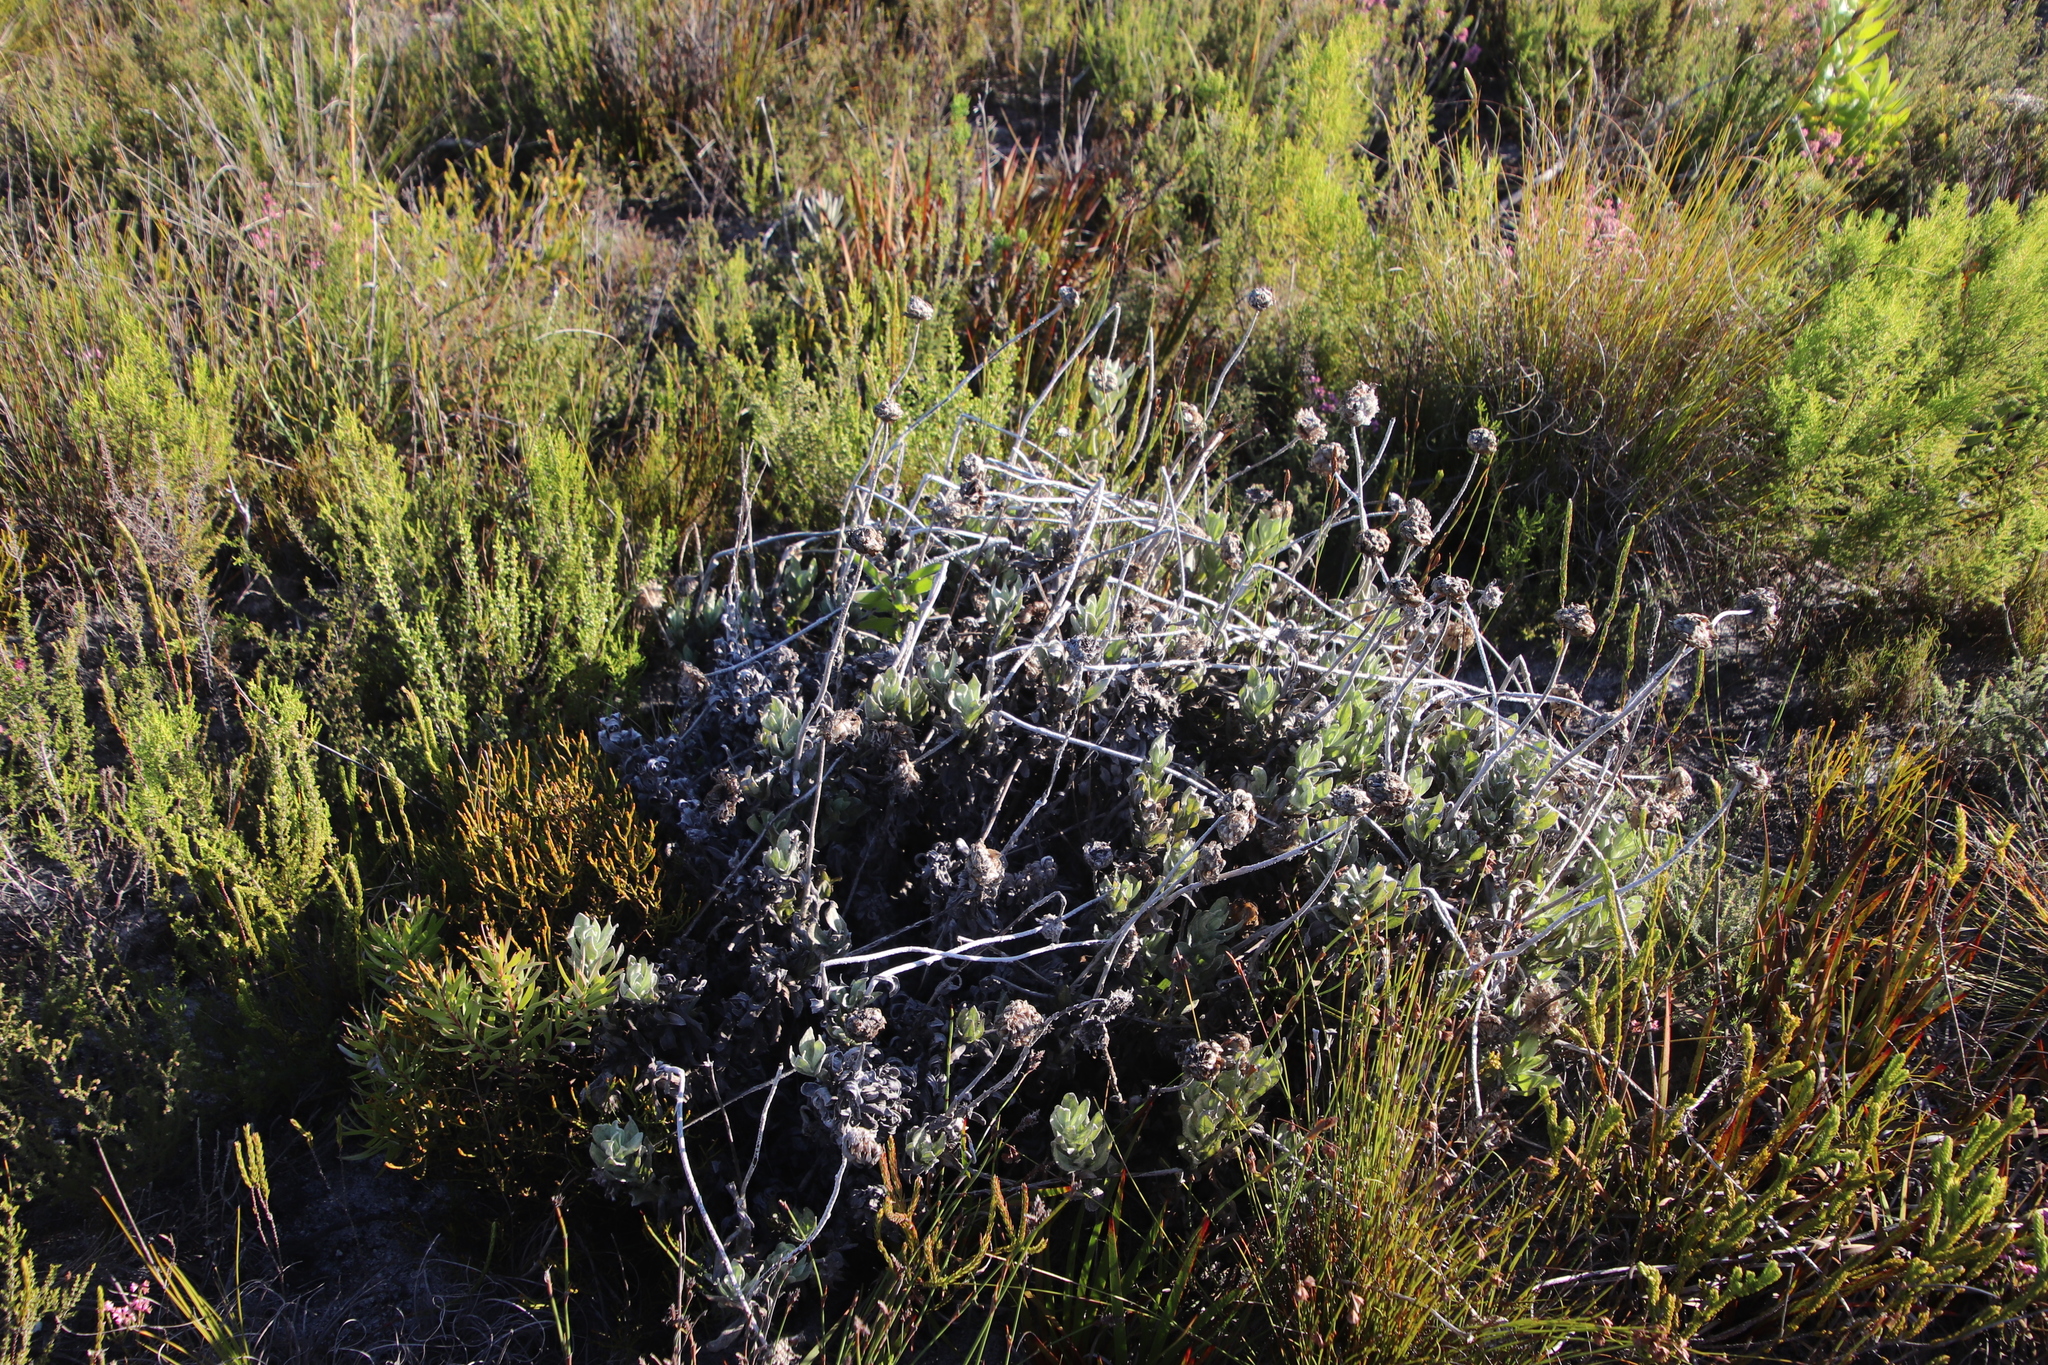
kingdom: Plantae
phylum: Tracheophyta
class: Magnoliopsida
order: Asterales
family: Asteraceae
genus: Syncarpha
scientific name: Syncarpha speciosissima
